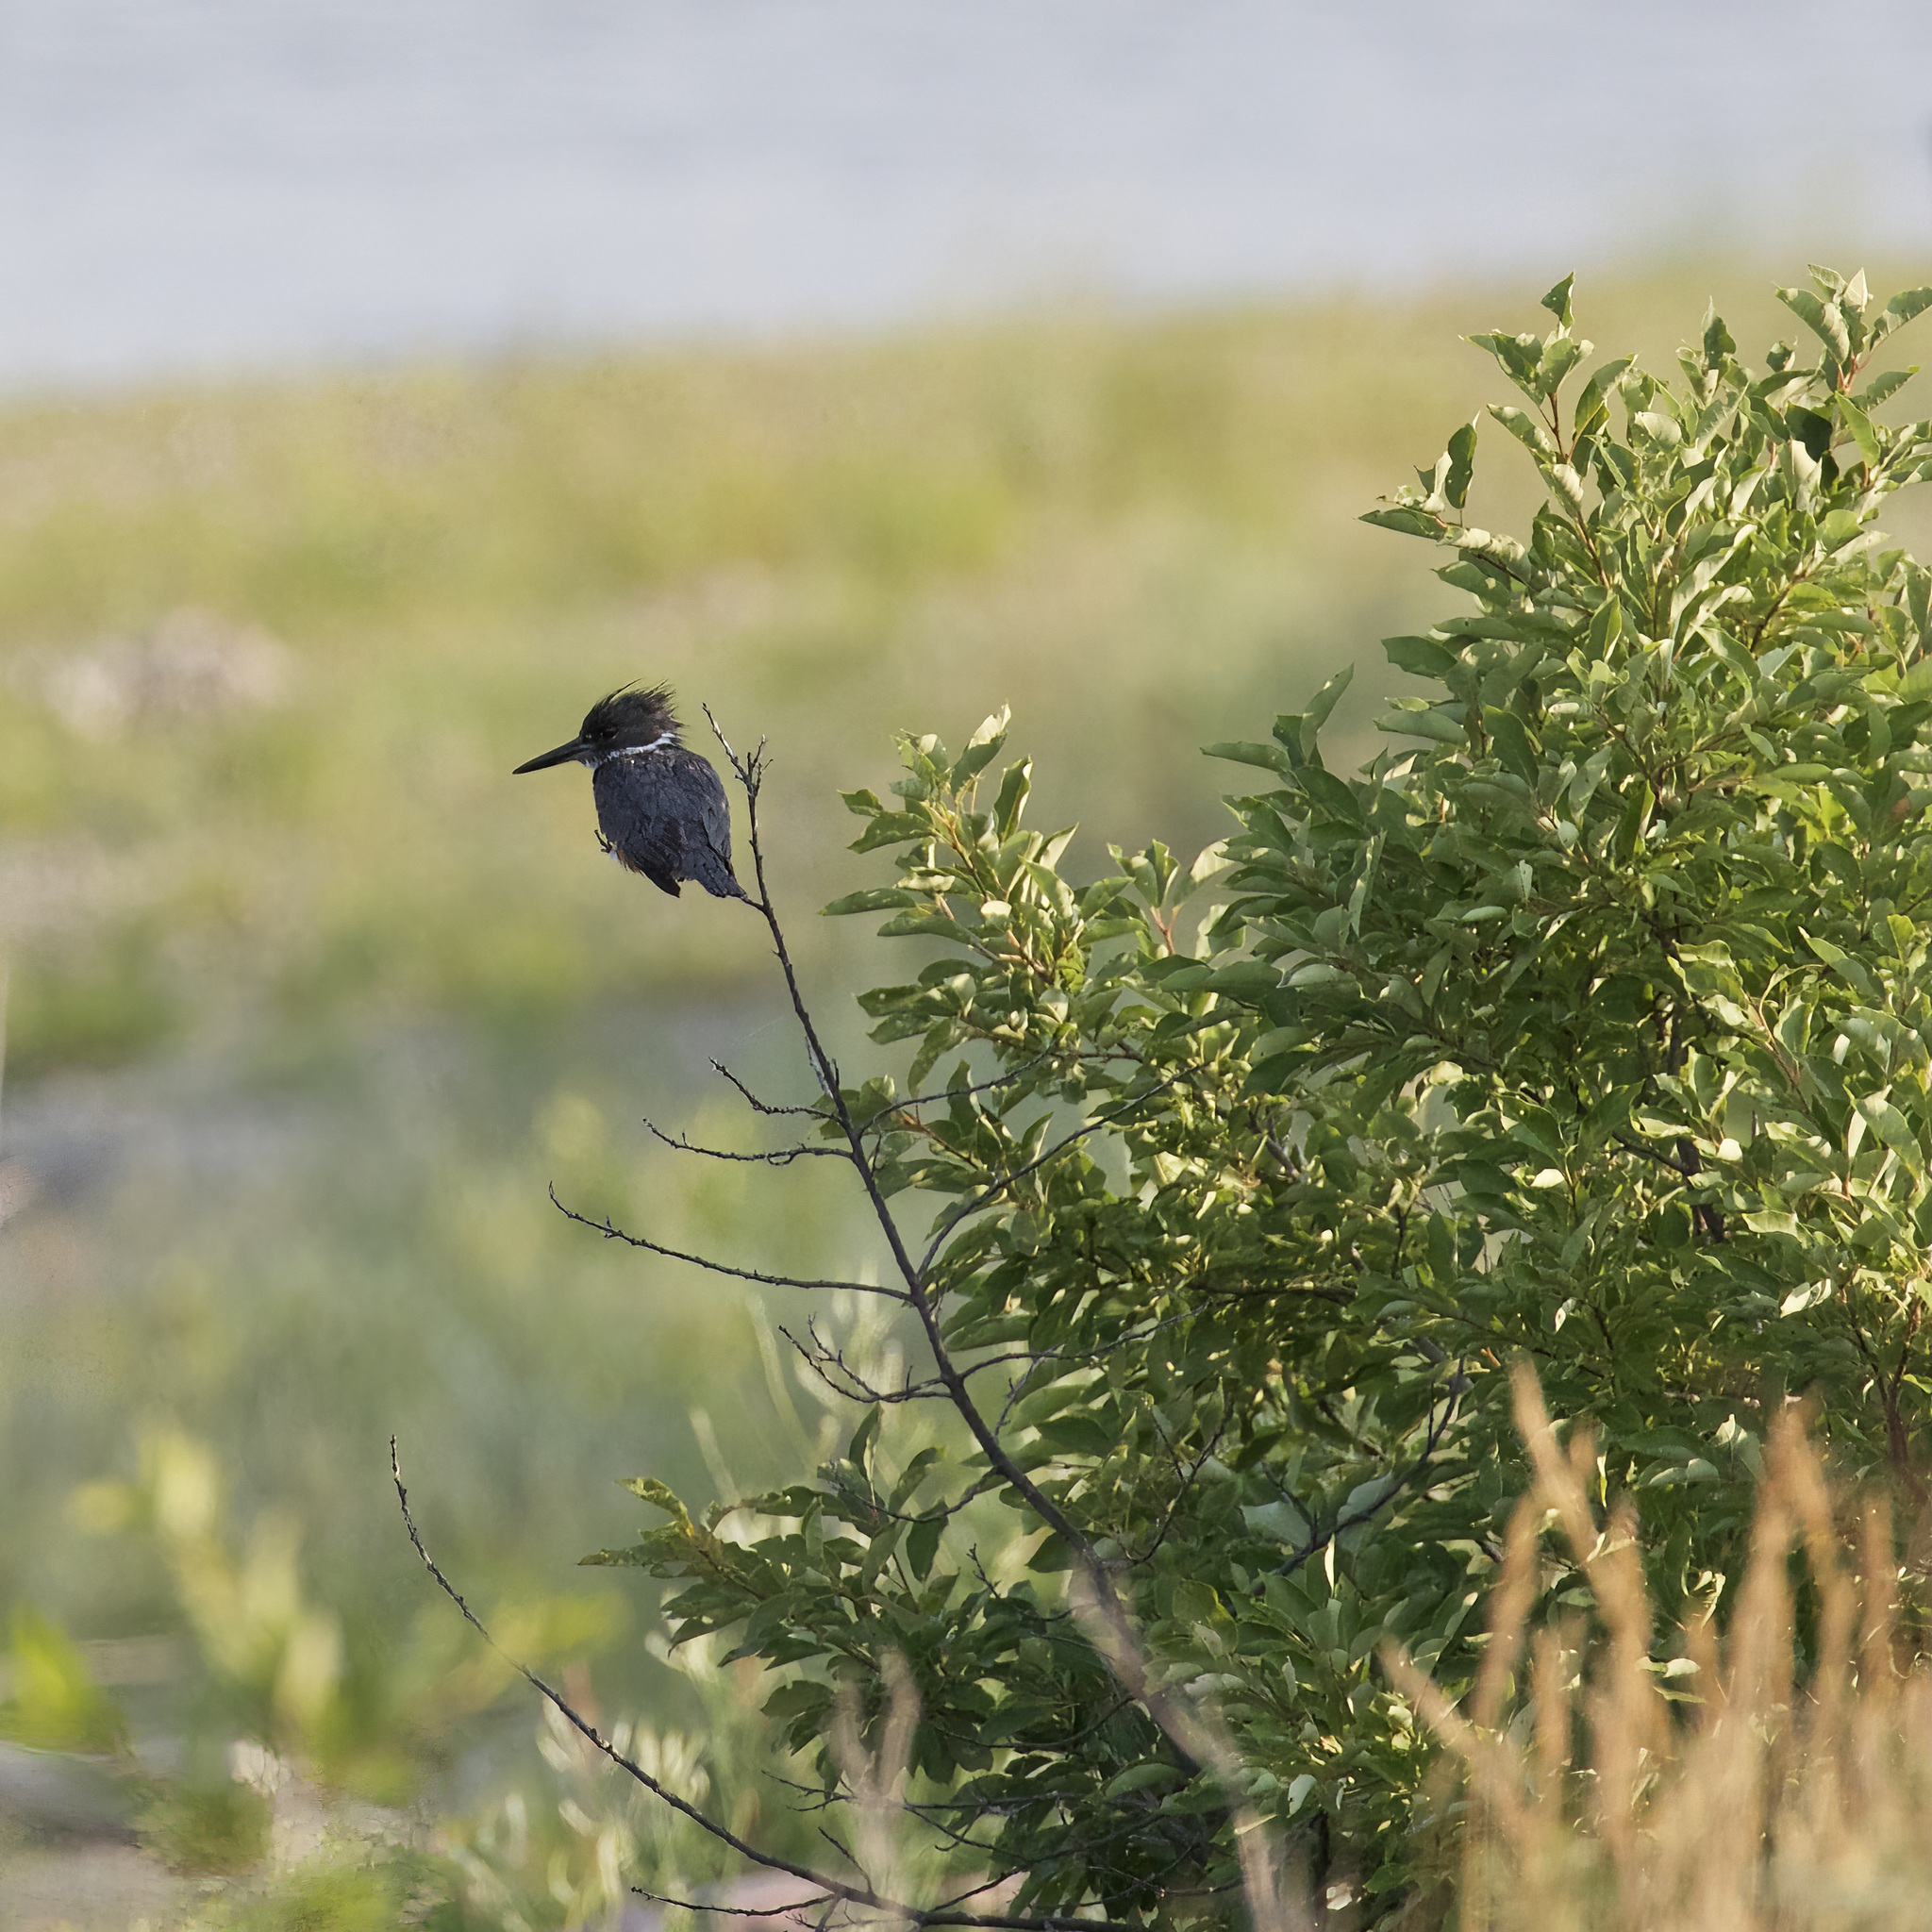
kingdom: Animalia
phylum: Chordata
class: Aves
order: Coraciiformes
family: Alcedinidae
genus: Megaceryle
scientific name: Megaceryle alcyon
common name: Belted kingfisher
